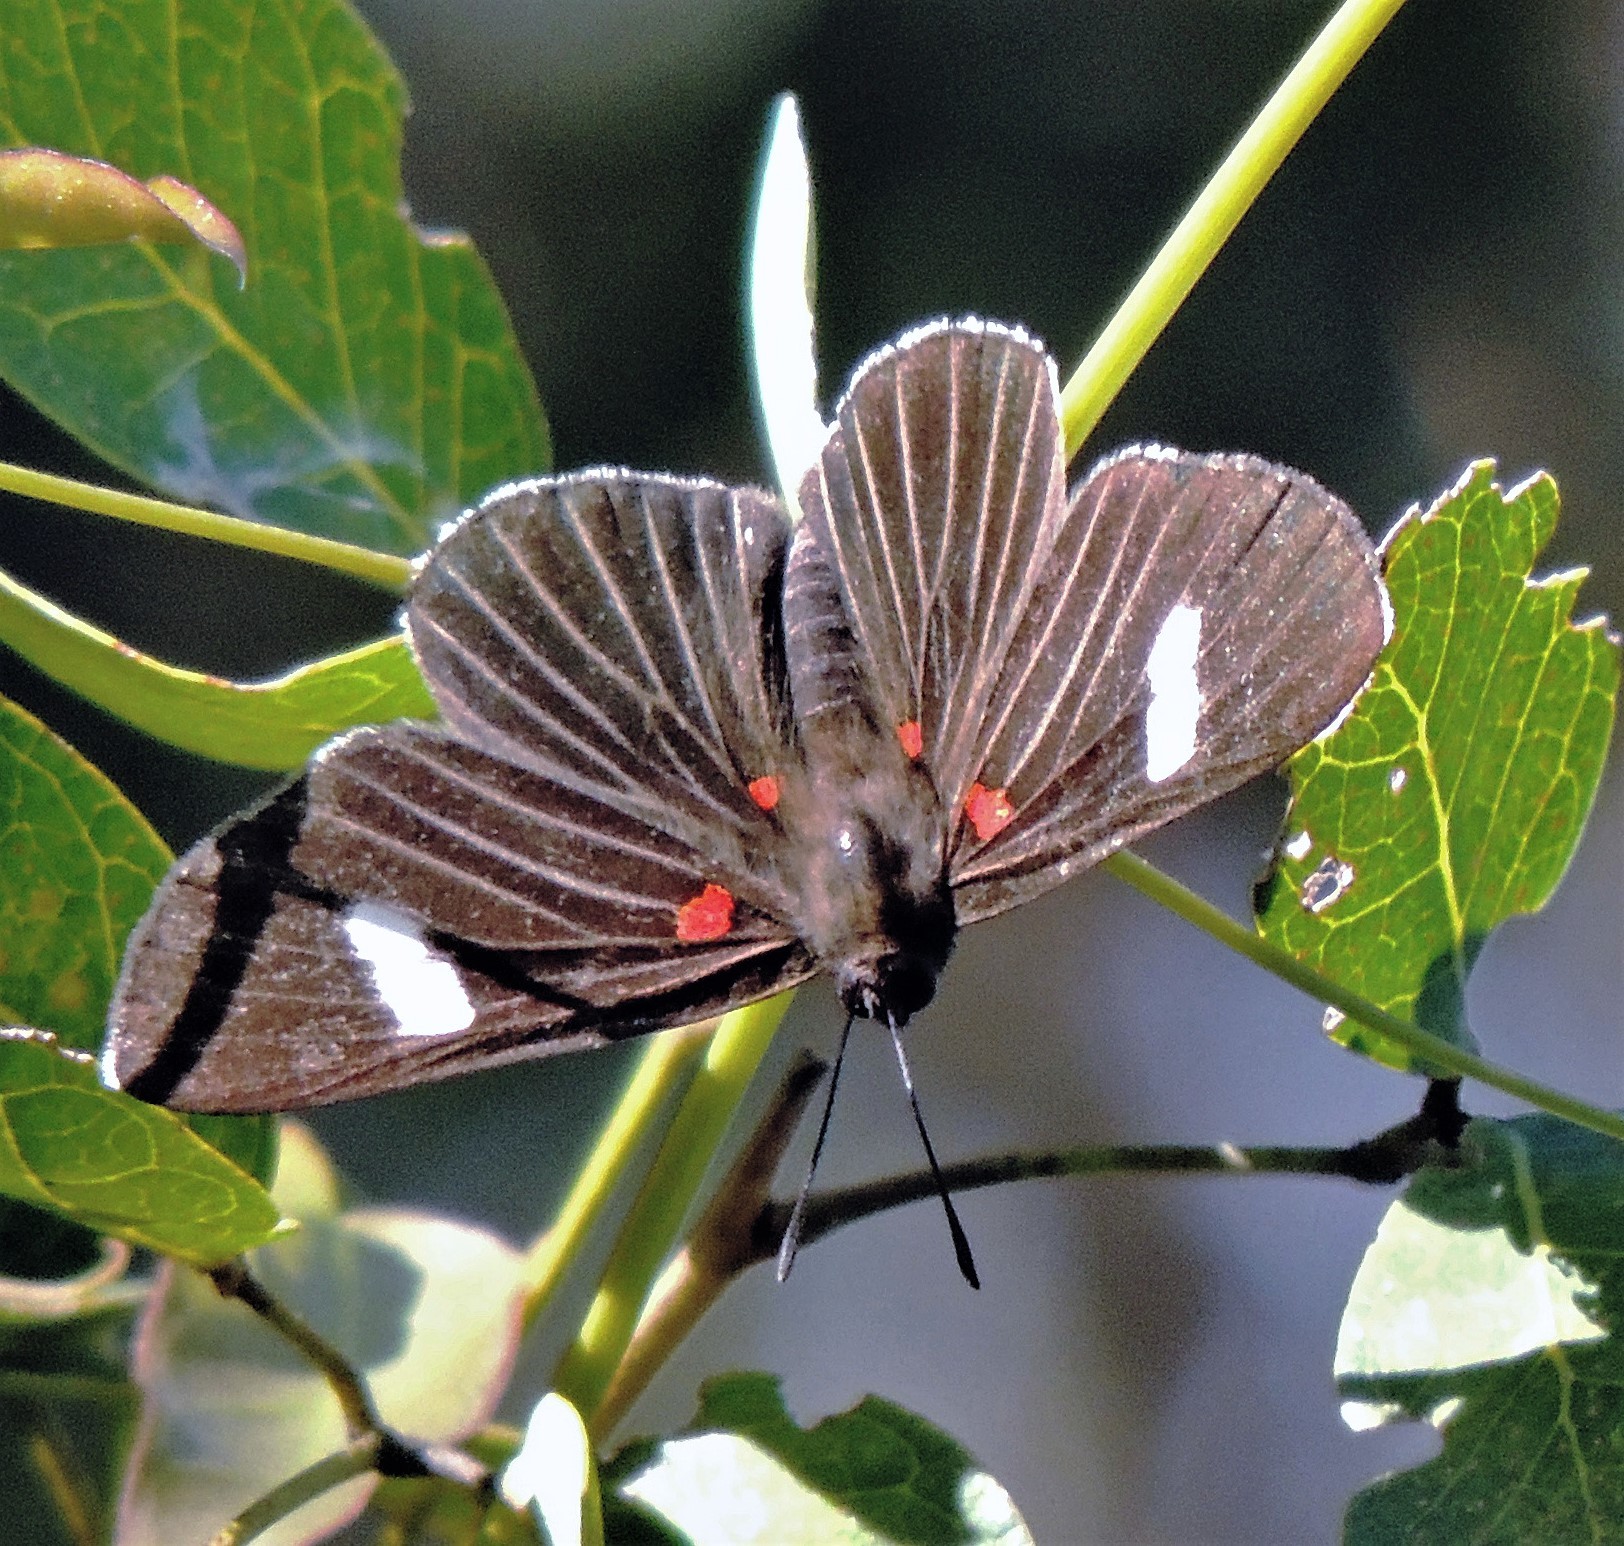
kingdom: Animalia
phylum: Arthropoda
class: Insecta
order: Lepidoptera
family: Lycaenidae
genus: Melanis
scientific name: Melanis aegates
